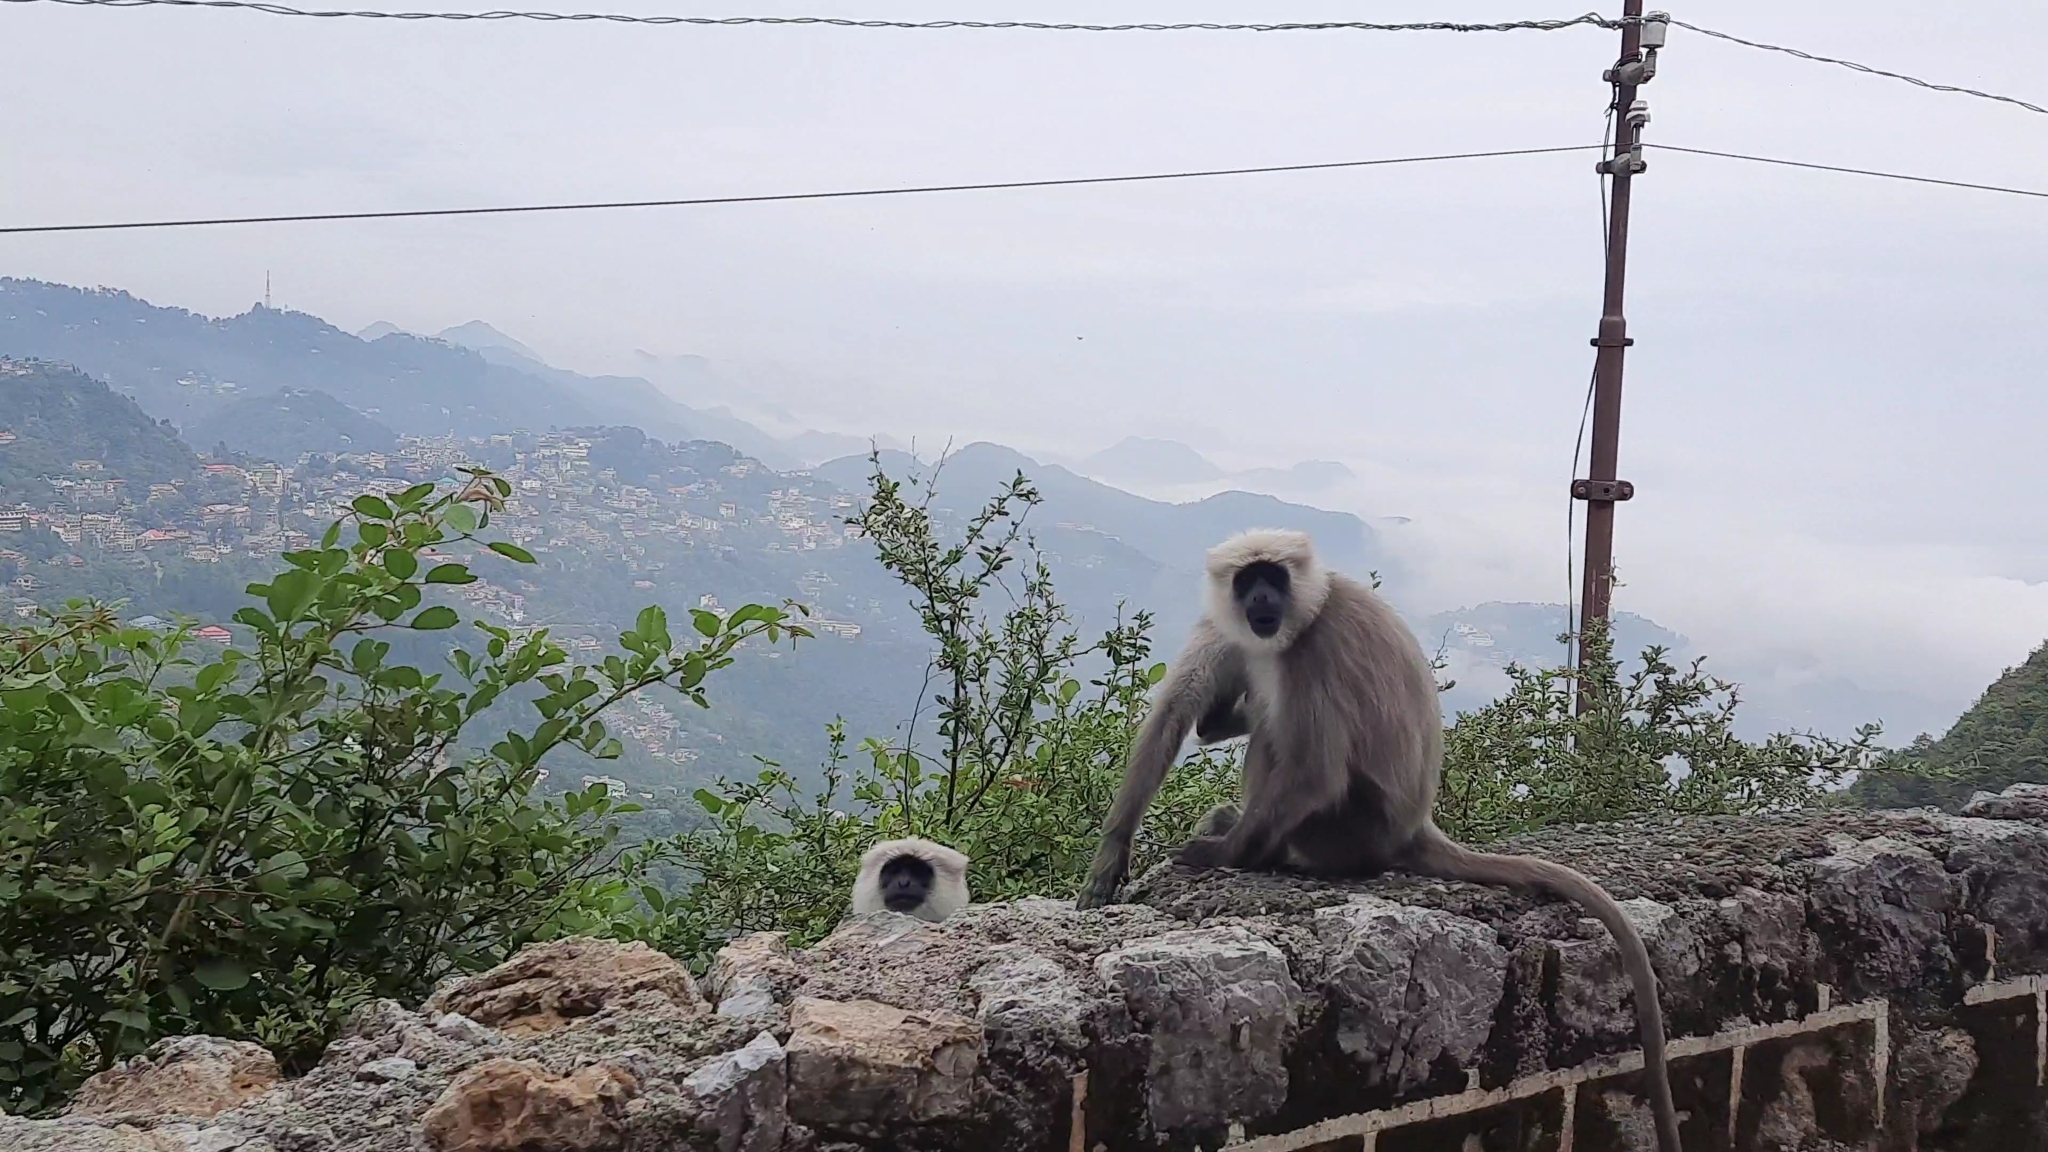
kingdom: Animalia
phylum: Chordata
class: Mammalia
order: Primates
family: Cercopithecidae
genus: Semnopithecus
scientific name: Semnopithecus schistaceus
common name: Nepal gray langur
